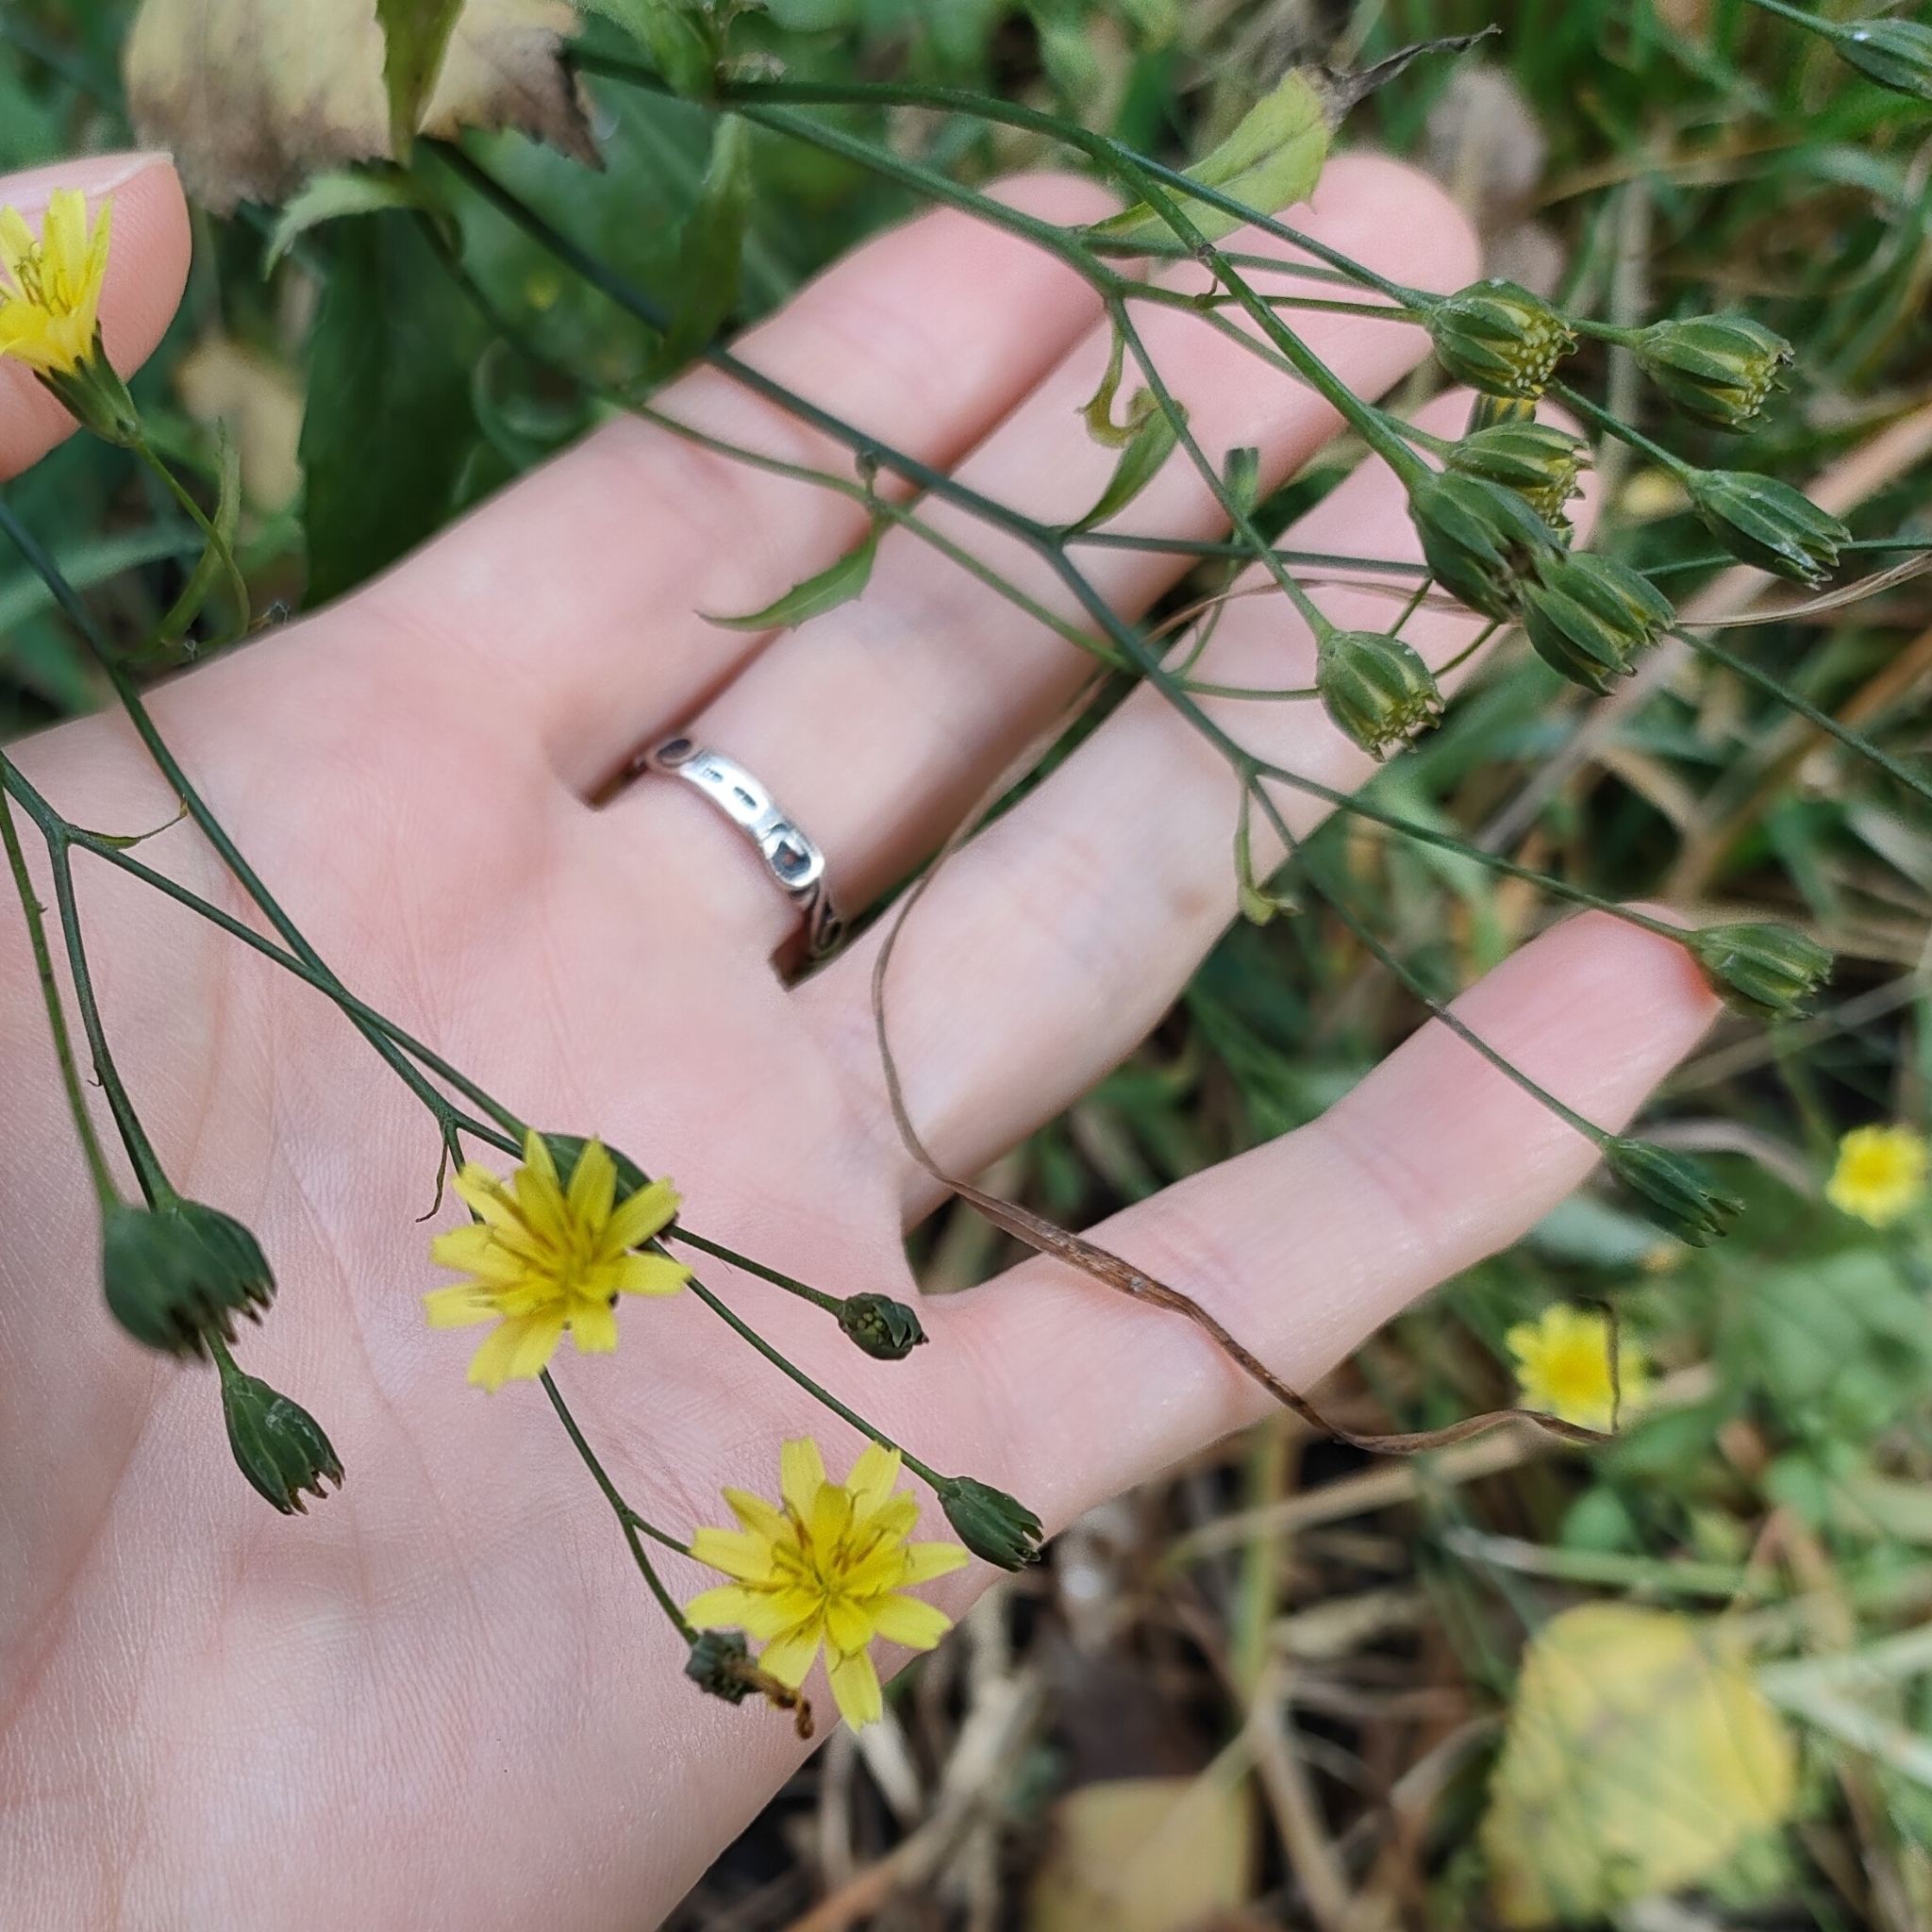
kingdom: Plantae
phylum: Tracheophyta
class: Magnoliopsida
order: Asterales
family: Asteraceae
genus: Lapsana
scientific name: Lapsana communis
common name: Nipplewort
